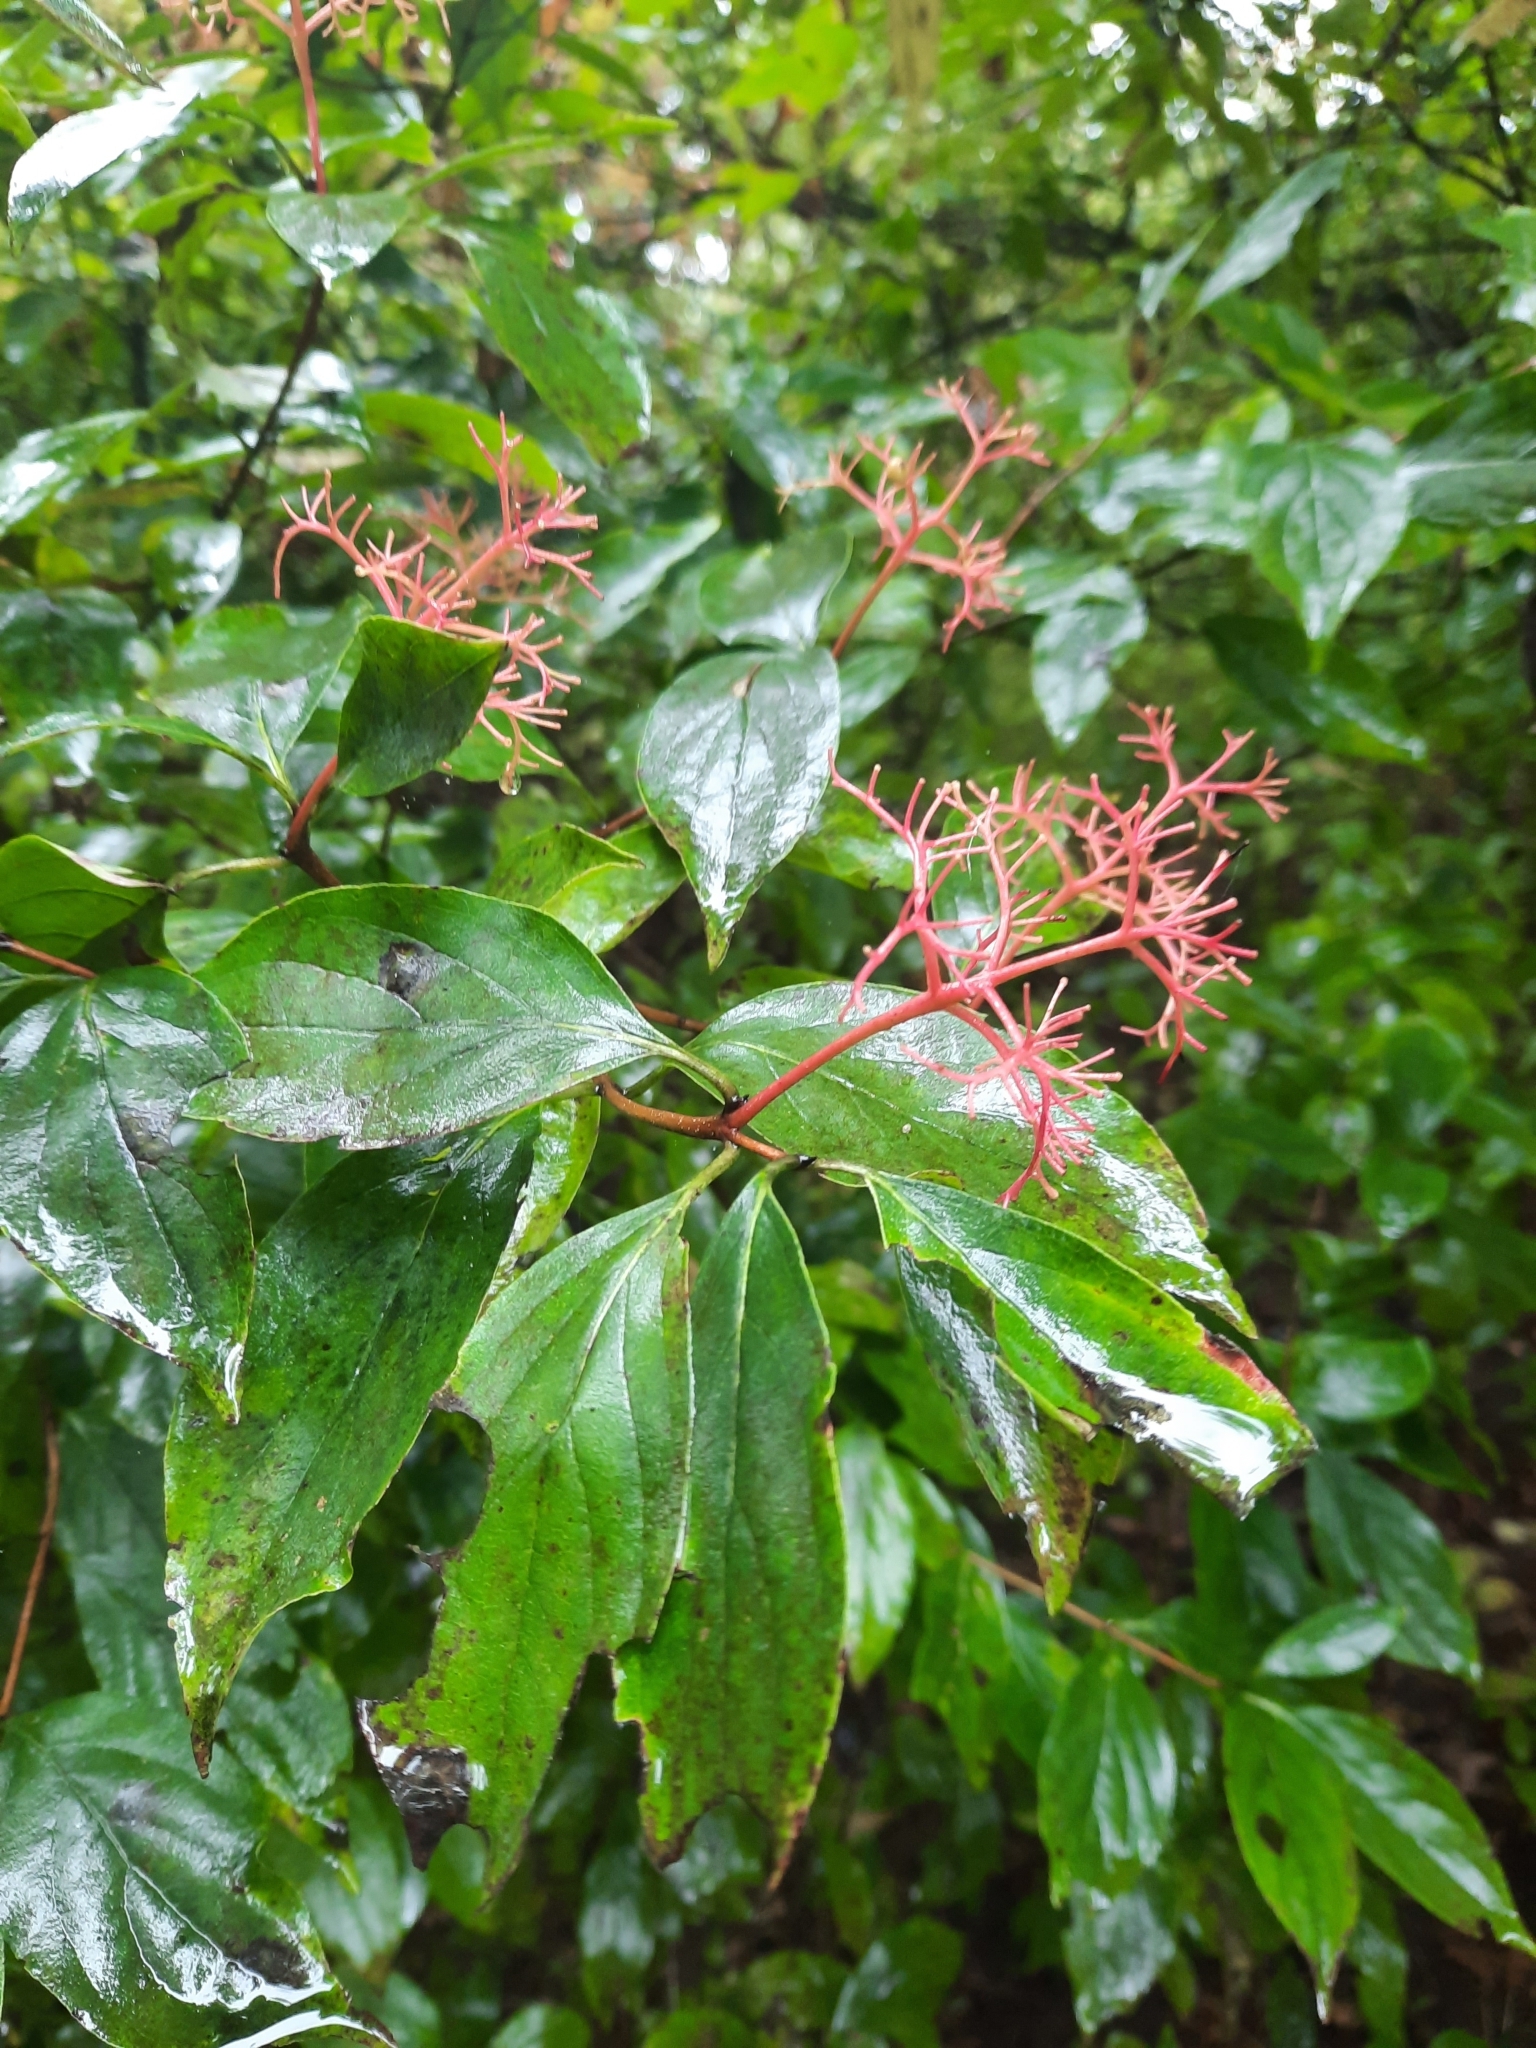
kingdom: Plantae
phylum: Tracheophyta
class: Magnoliopsida
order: Cornales
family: Cornaceae
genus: Cornus
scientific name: Cornus racemosa
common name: Panicled dogwood
